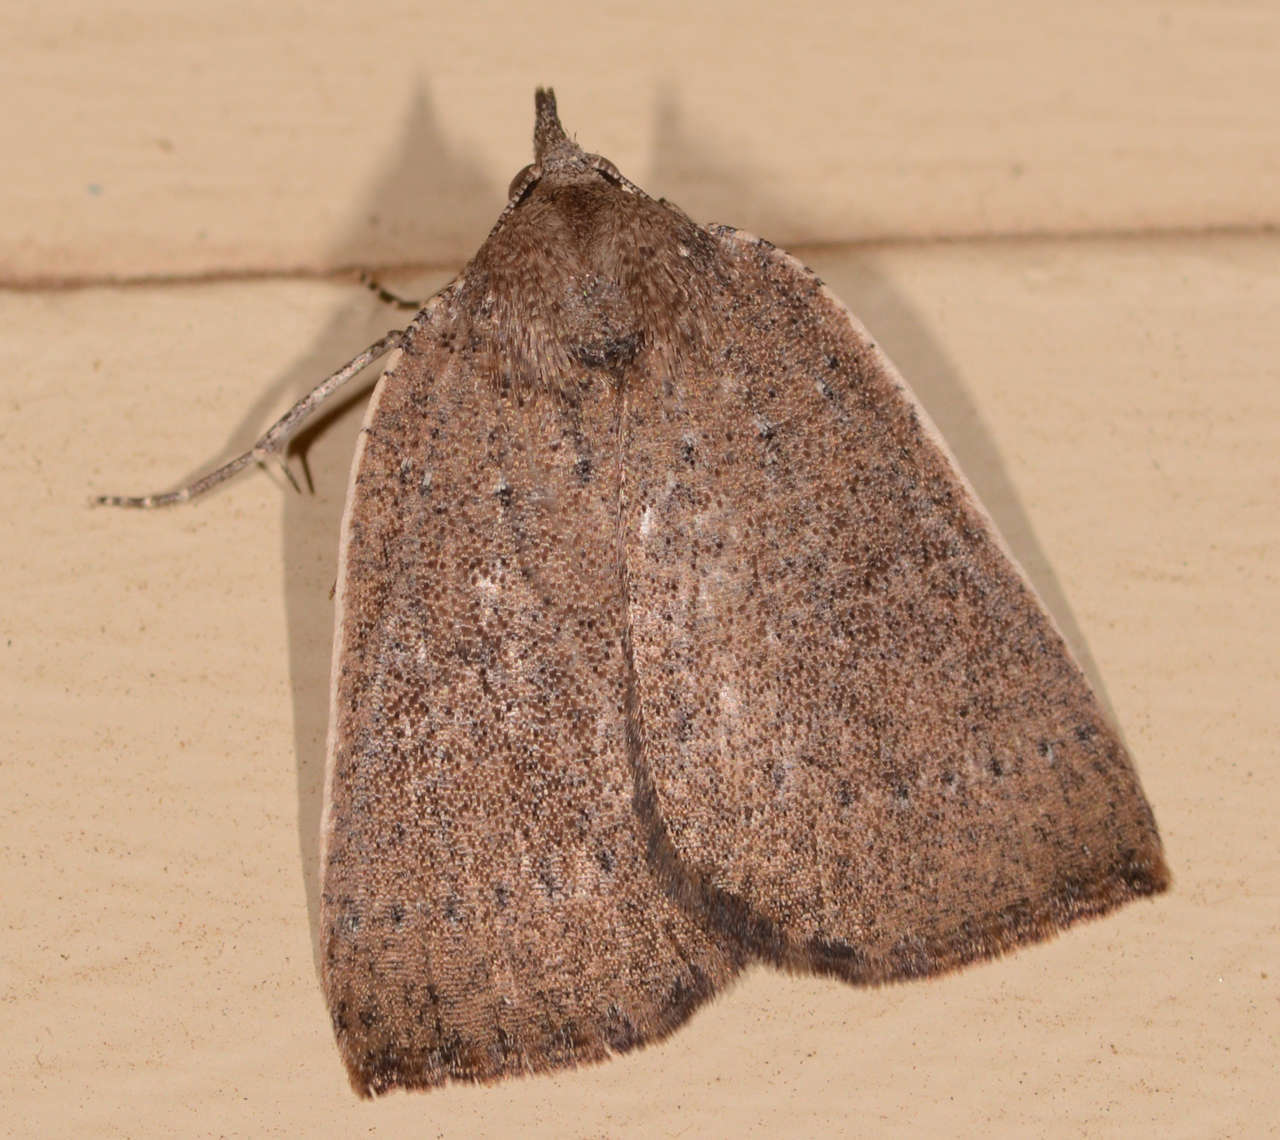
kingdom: Animalia
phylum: Arthropoda
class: Insecta
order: Lepidoptera
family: Geometridae
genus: Authaemon
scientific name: Authaemon stenonipha
